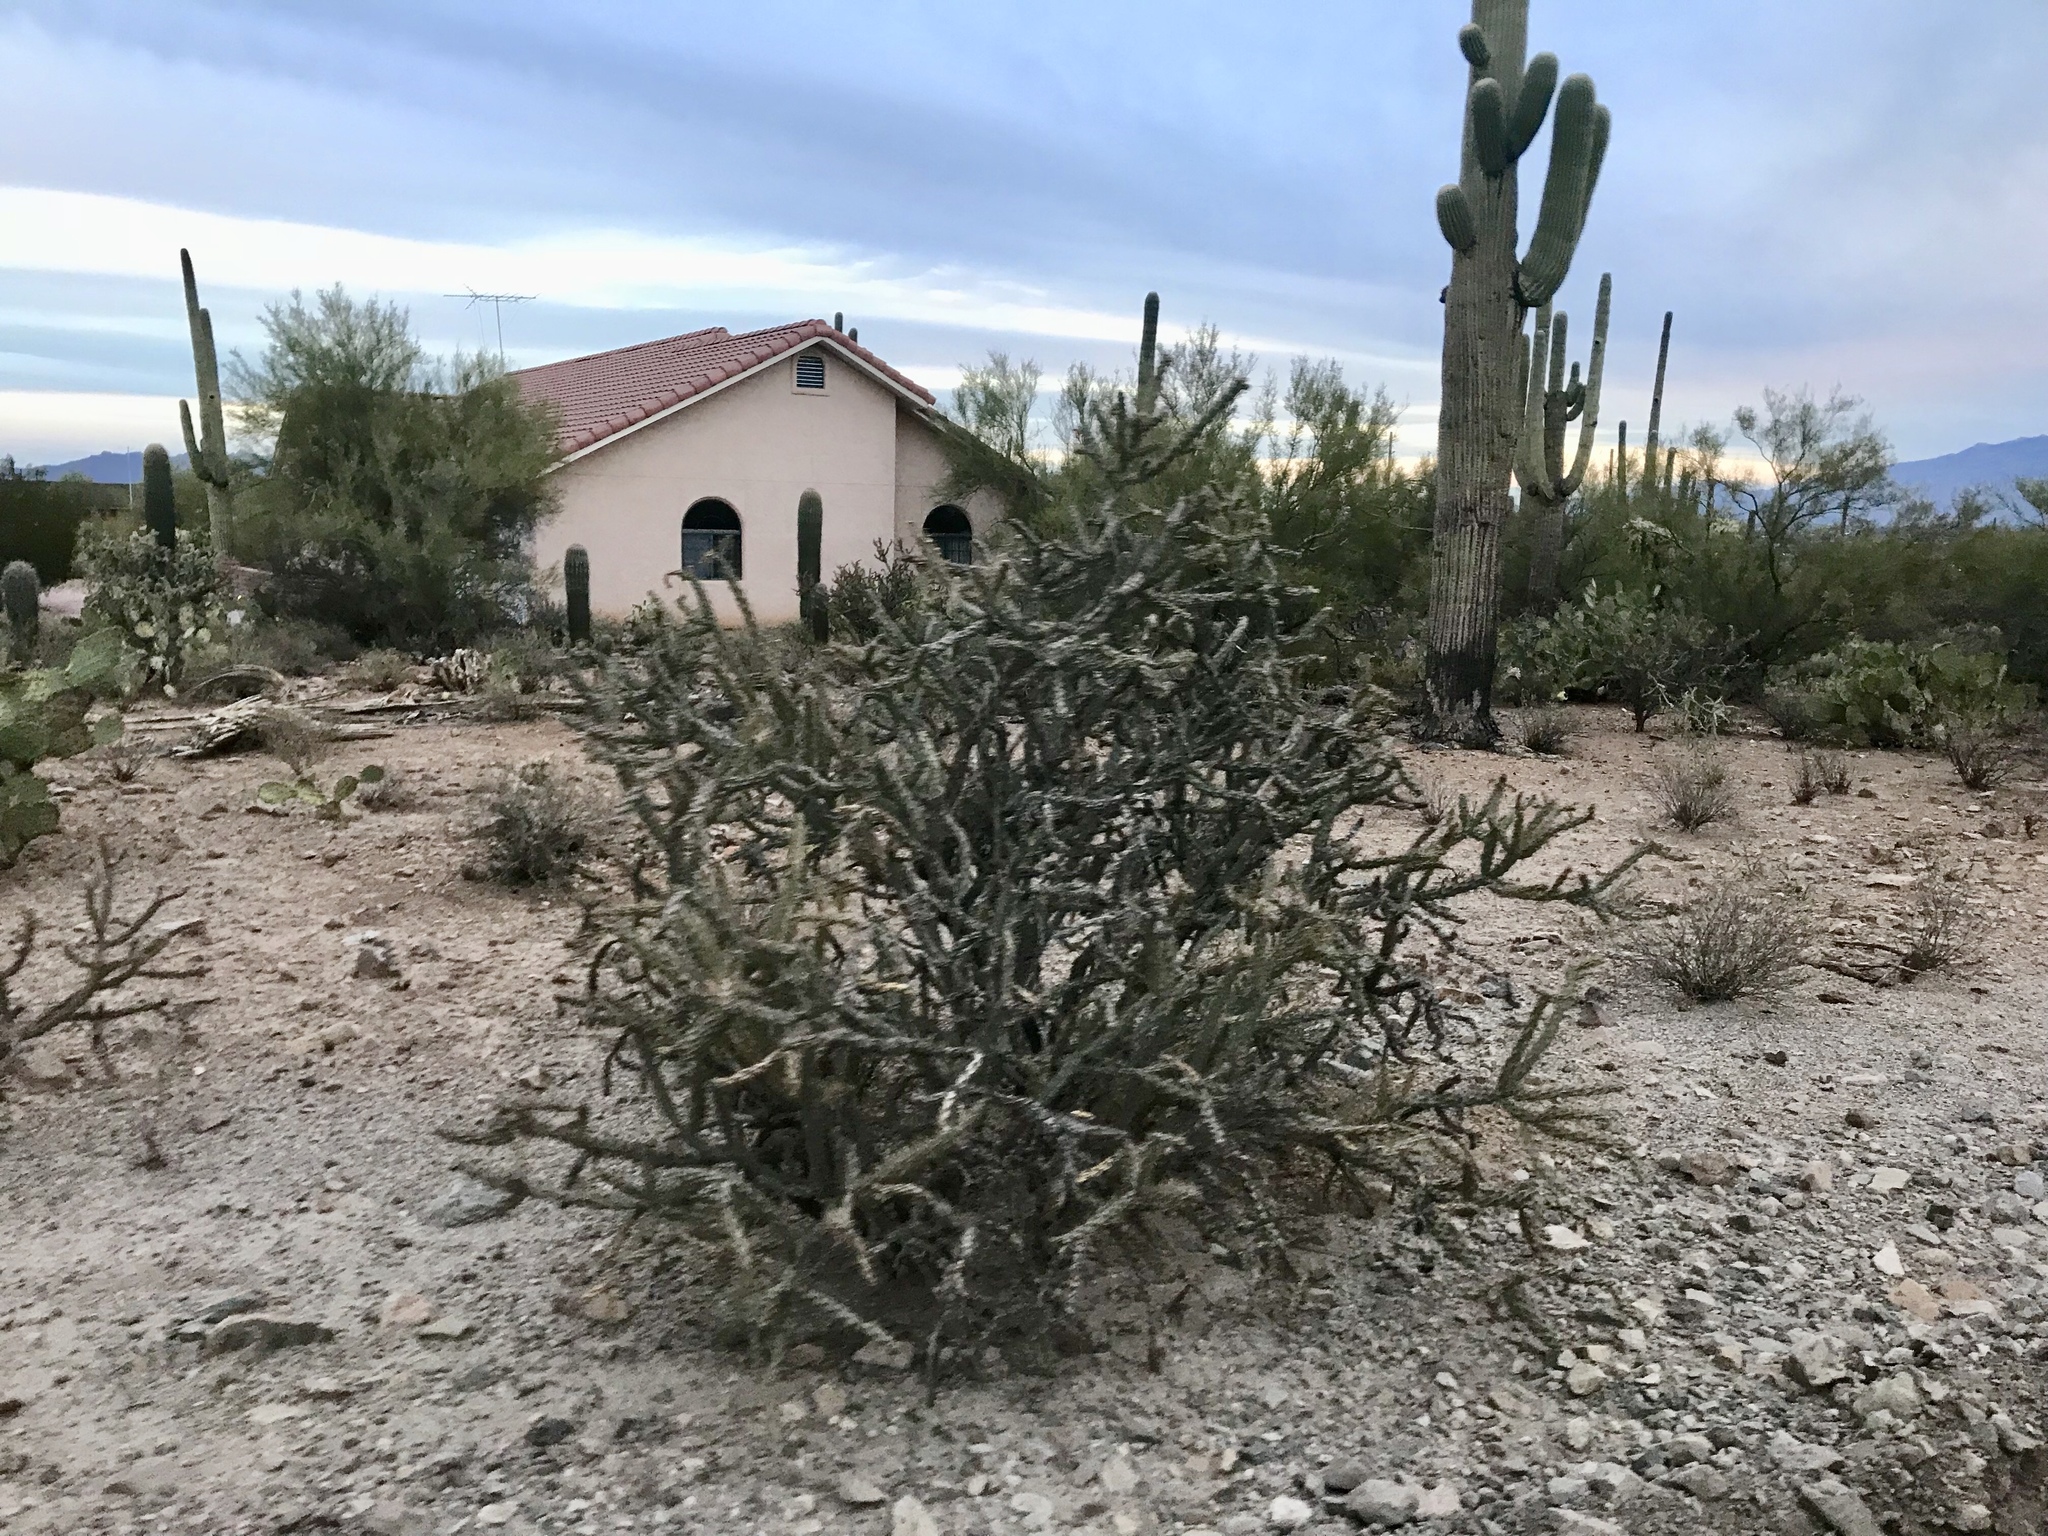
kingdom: Plantae
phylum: Tracheophyta
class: Magnoliopsida
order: Caryophyllales
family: Cactaceae
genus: Cylindropuntia
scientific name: Cylindropuntia thurberi
